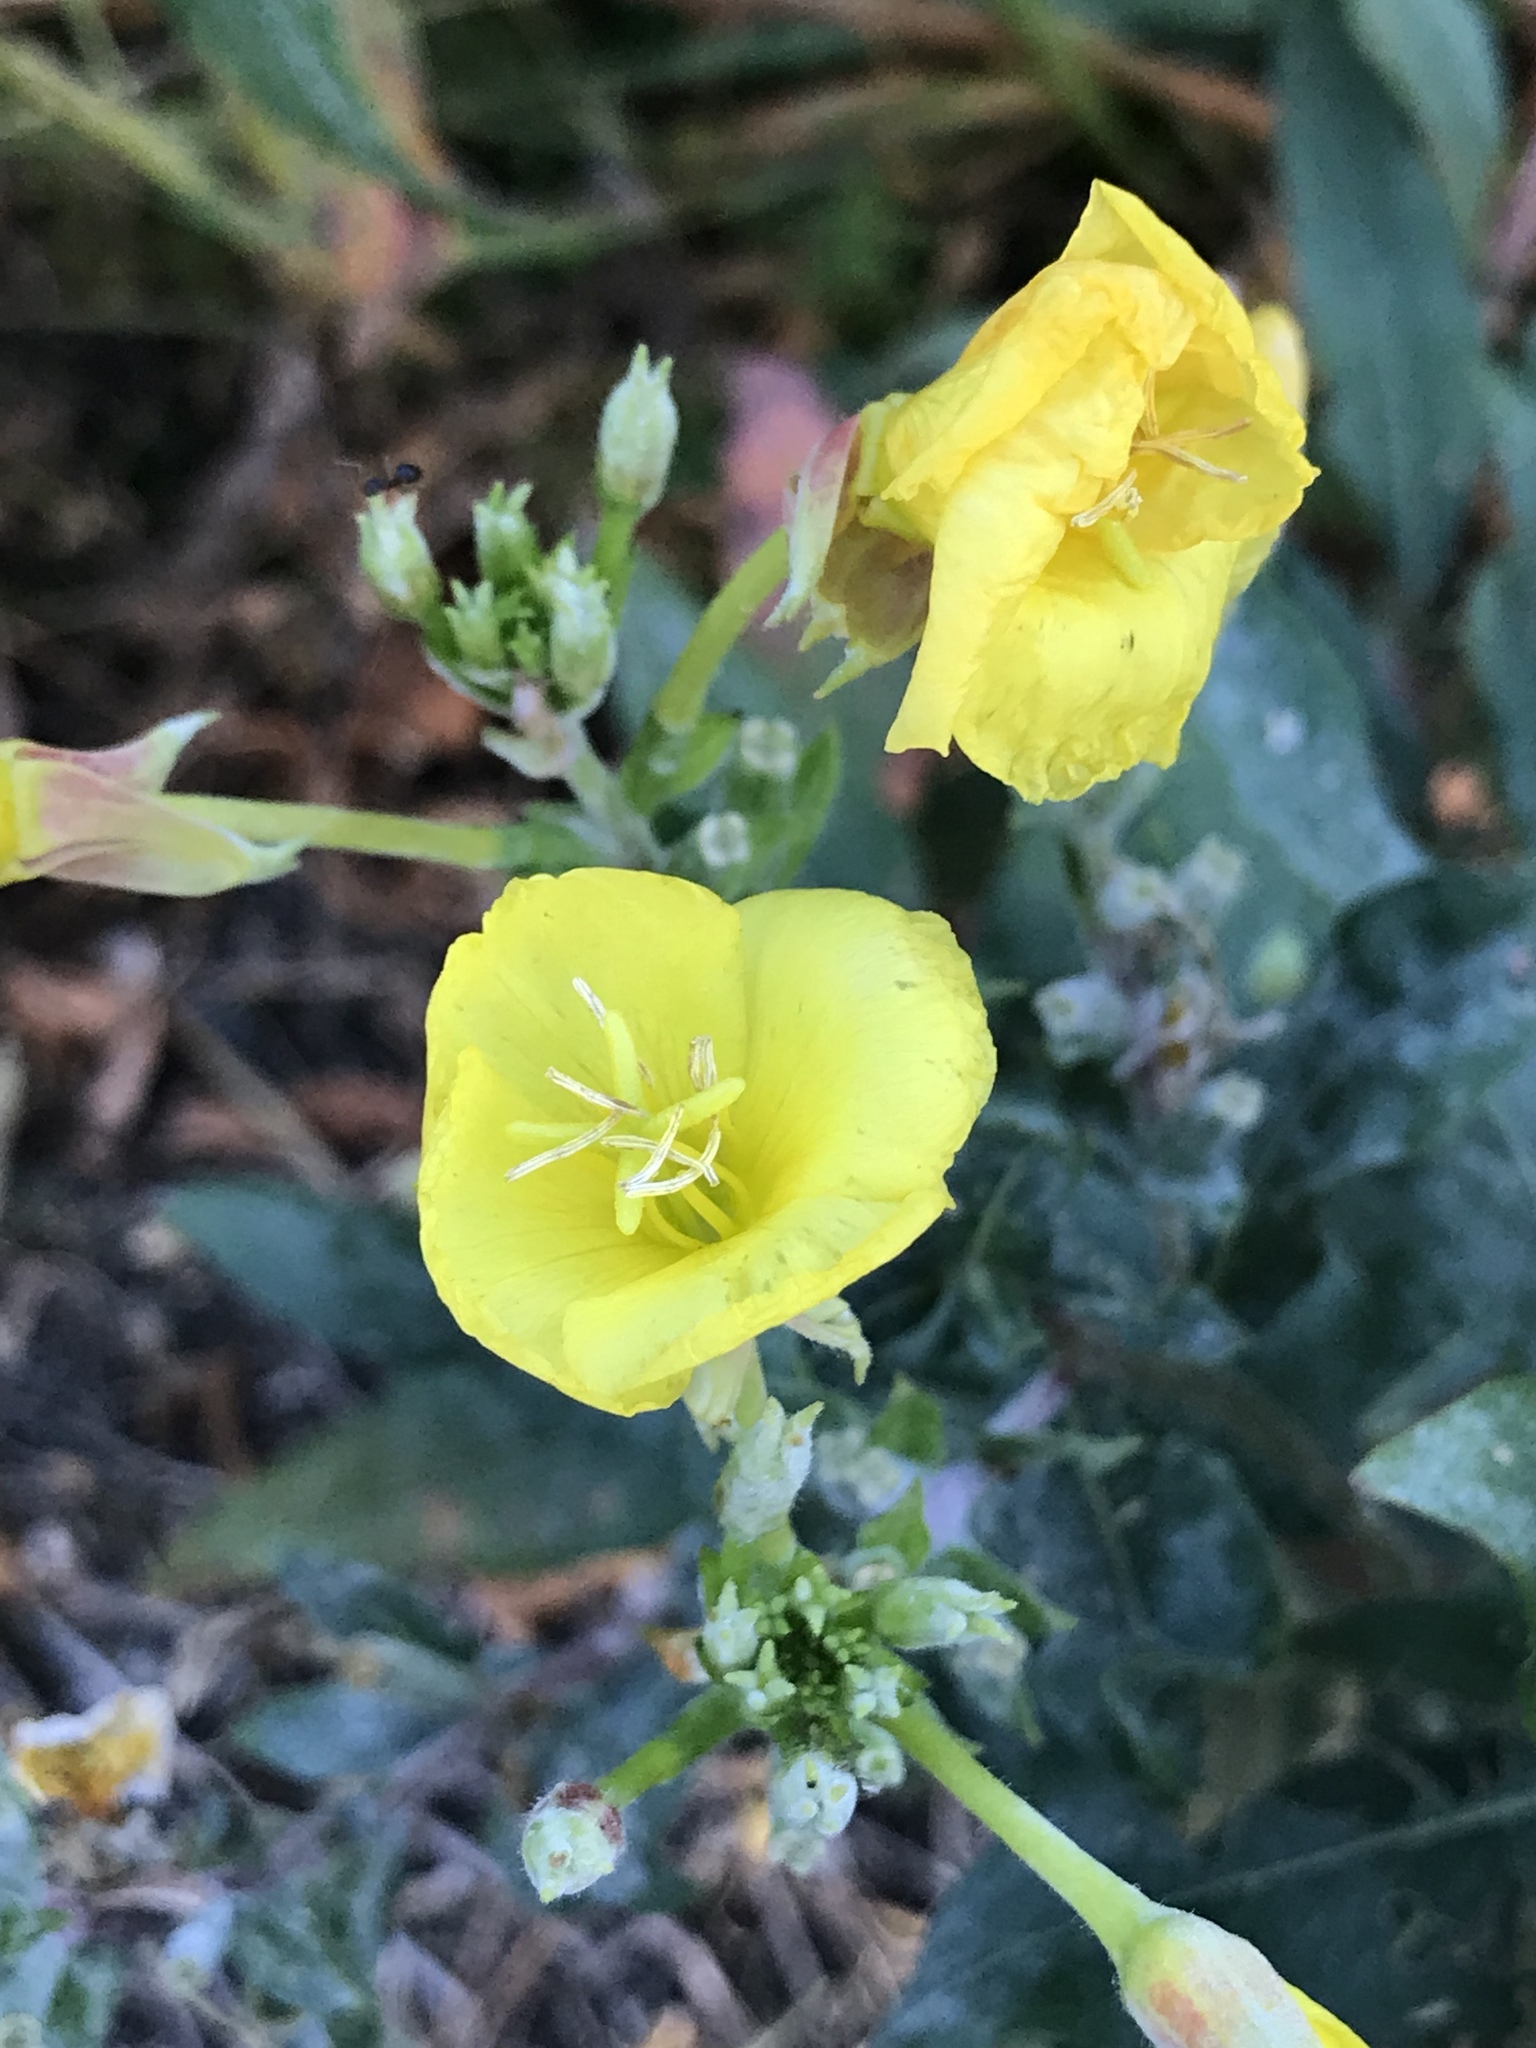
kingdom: Plantae
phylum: Tracheophyta
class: Magnoliopsida
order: Myrtales
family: Onagraceae
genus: Oenothera
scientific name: Oenothera biennis
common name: Common evening-primrose
